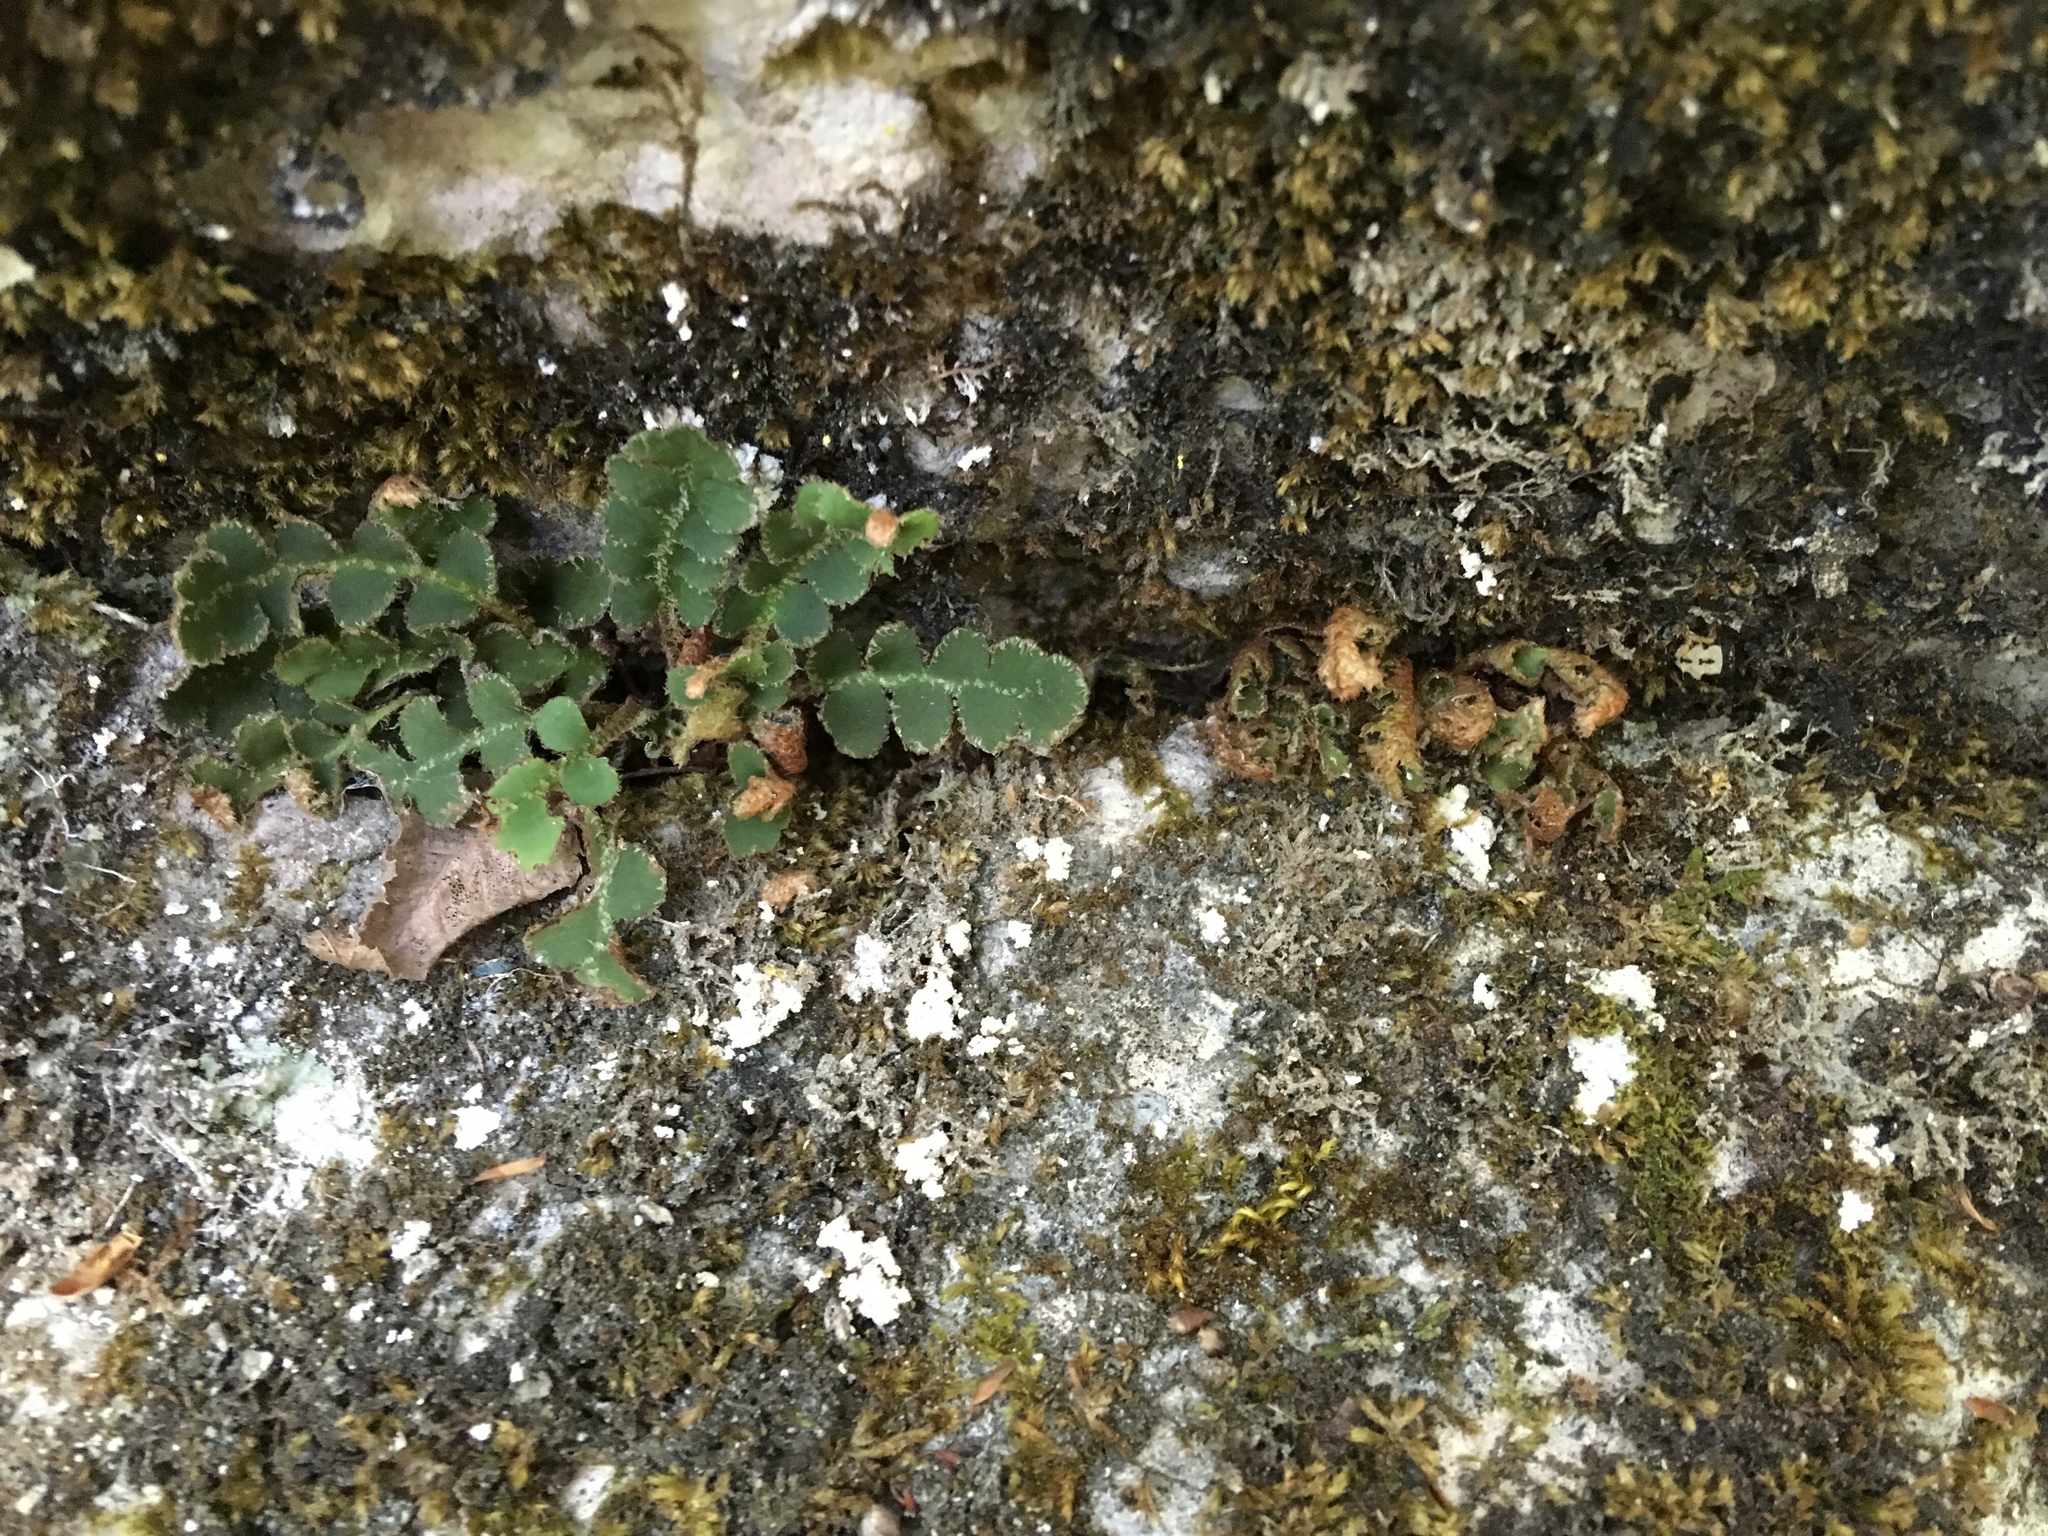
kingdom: Plantae
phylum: Tracheophyta
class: Polypodiopsida
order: Polypodiales
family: Aspleniaceae
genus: Asplenium
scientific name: Asplenium ceterach
